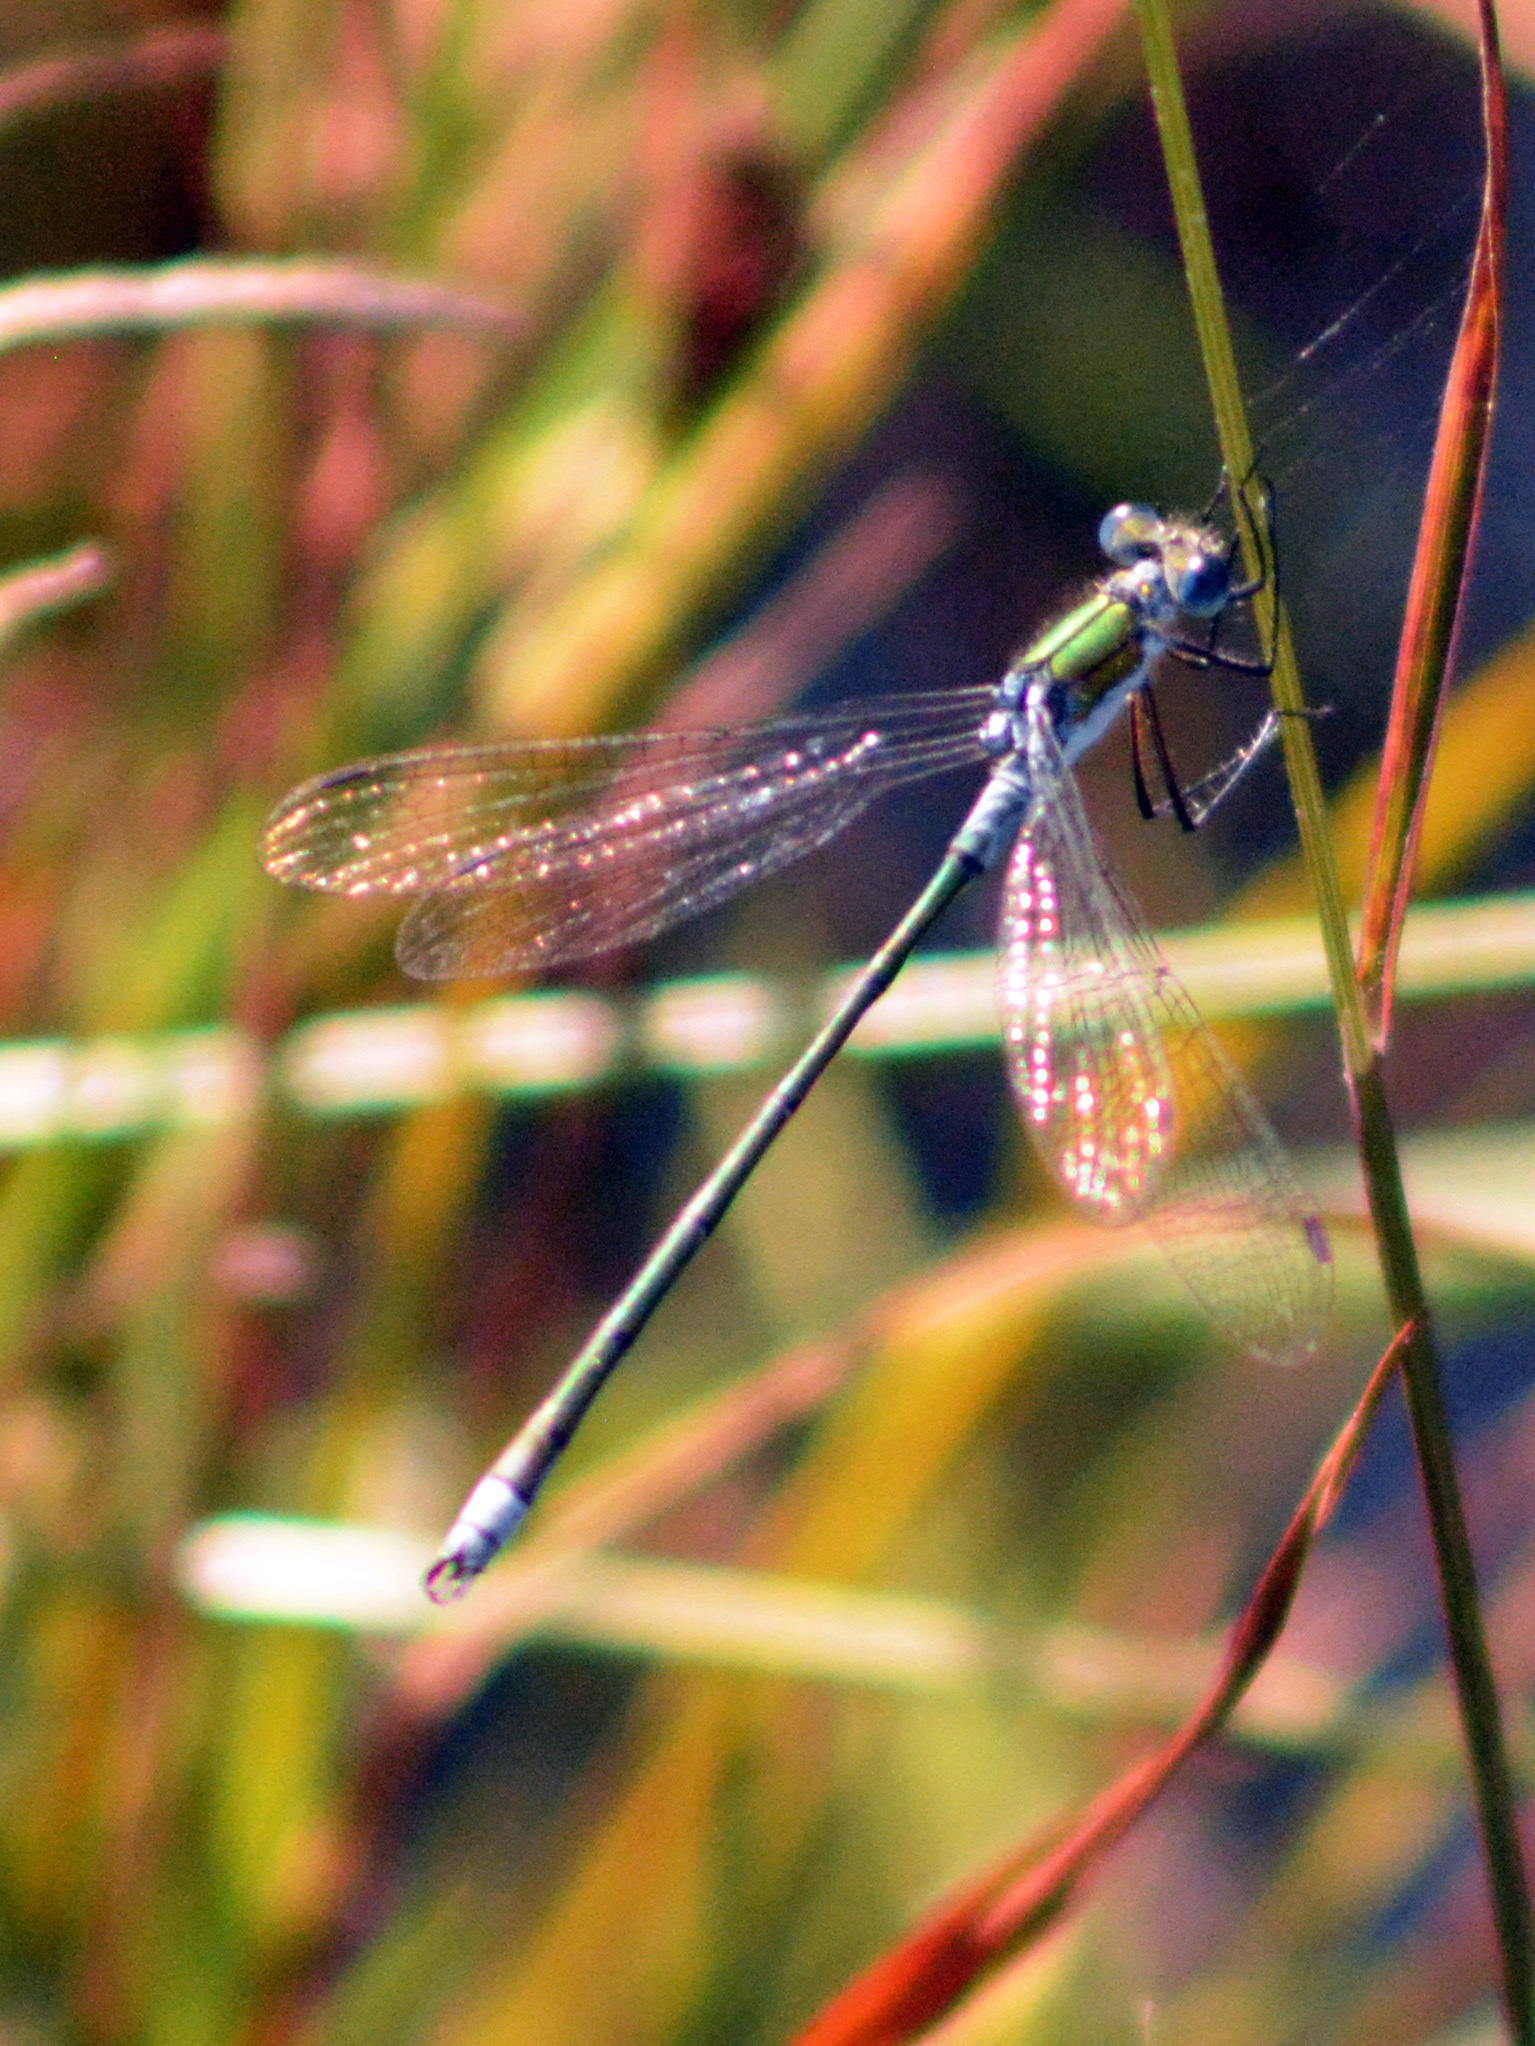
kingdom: Animalia
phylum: Arthropoda
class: Insecta
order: Odonata
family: Lestidae
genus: Lestes
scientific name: Lestes sponsa
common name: Common spreadwing
